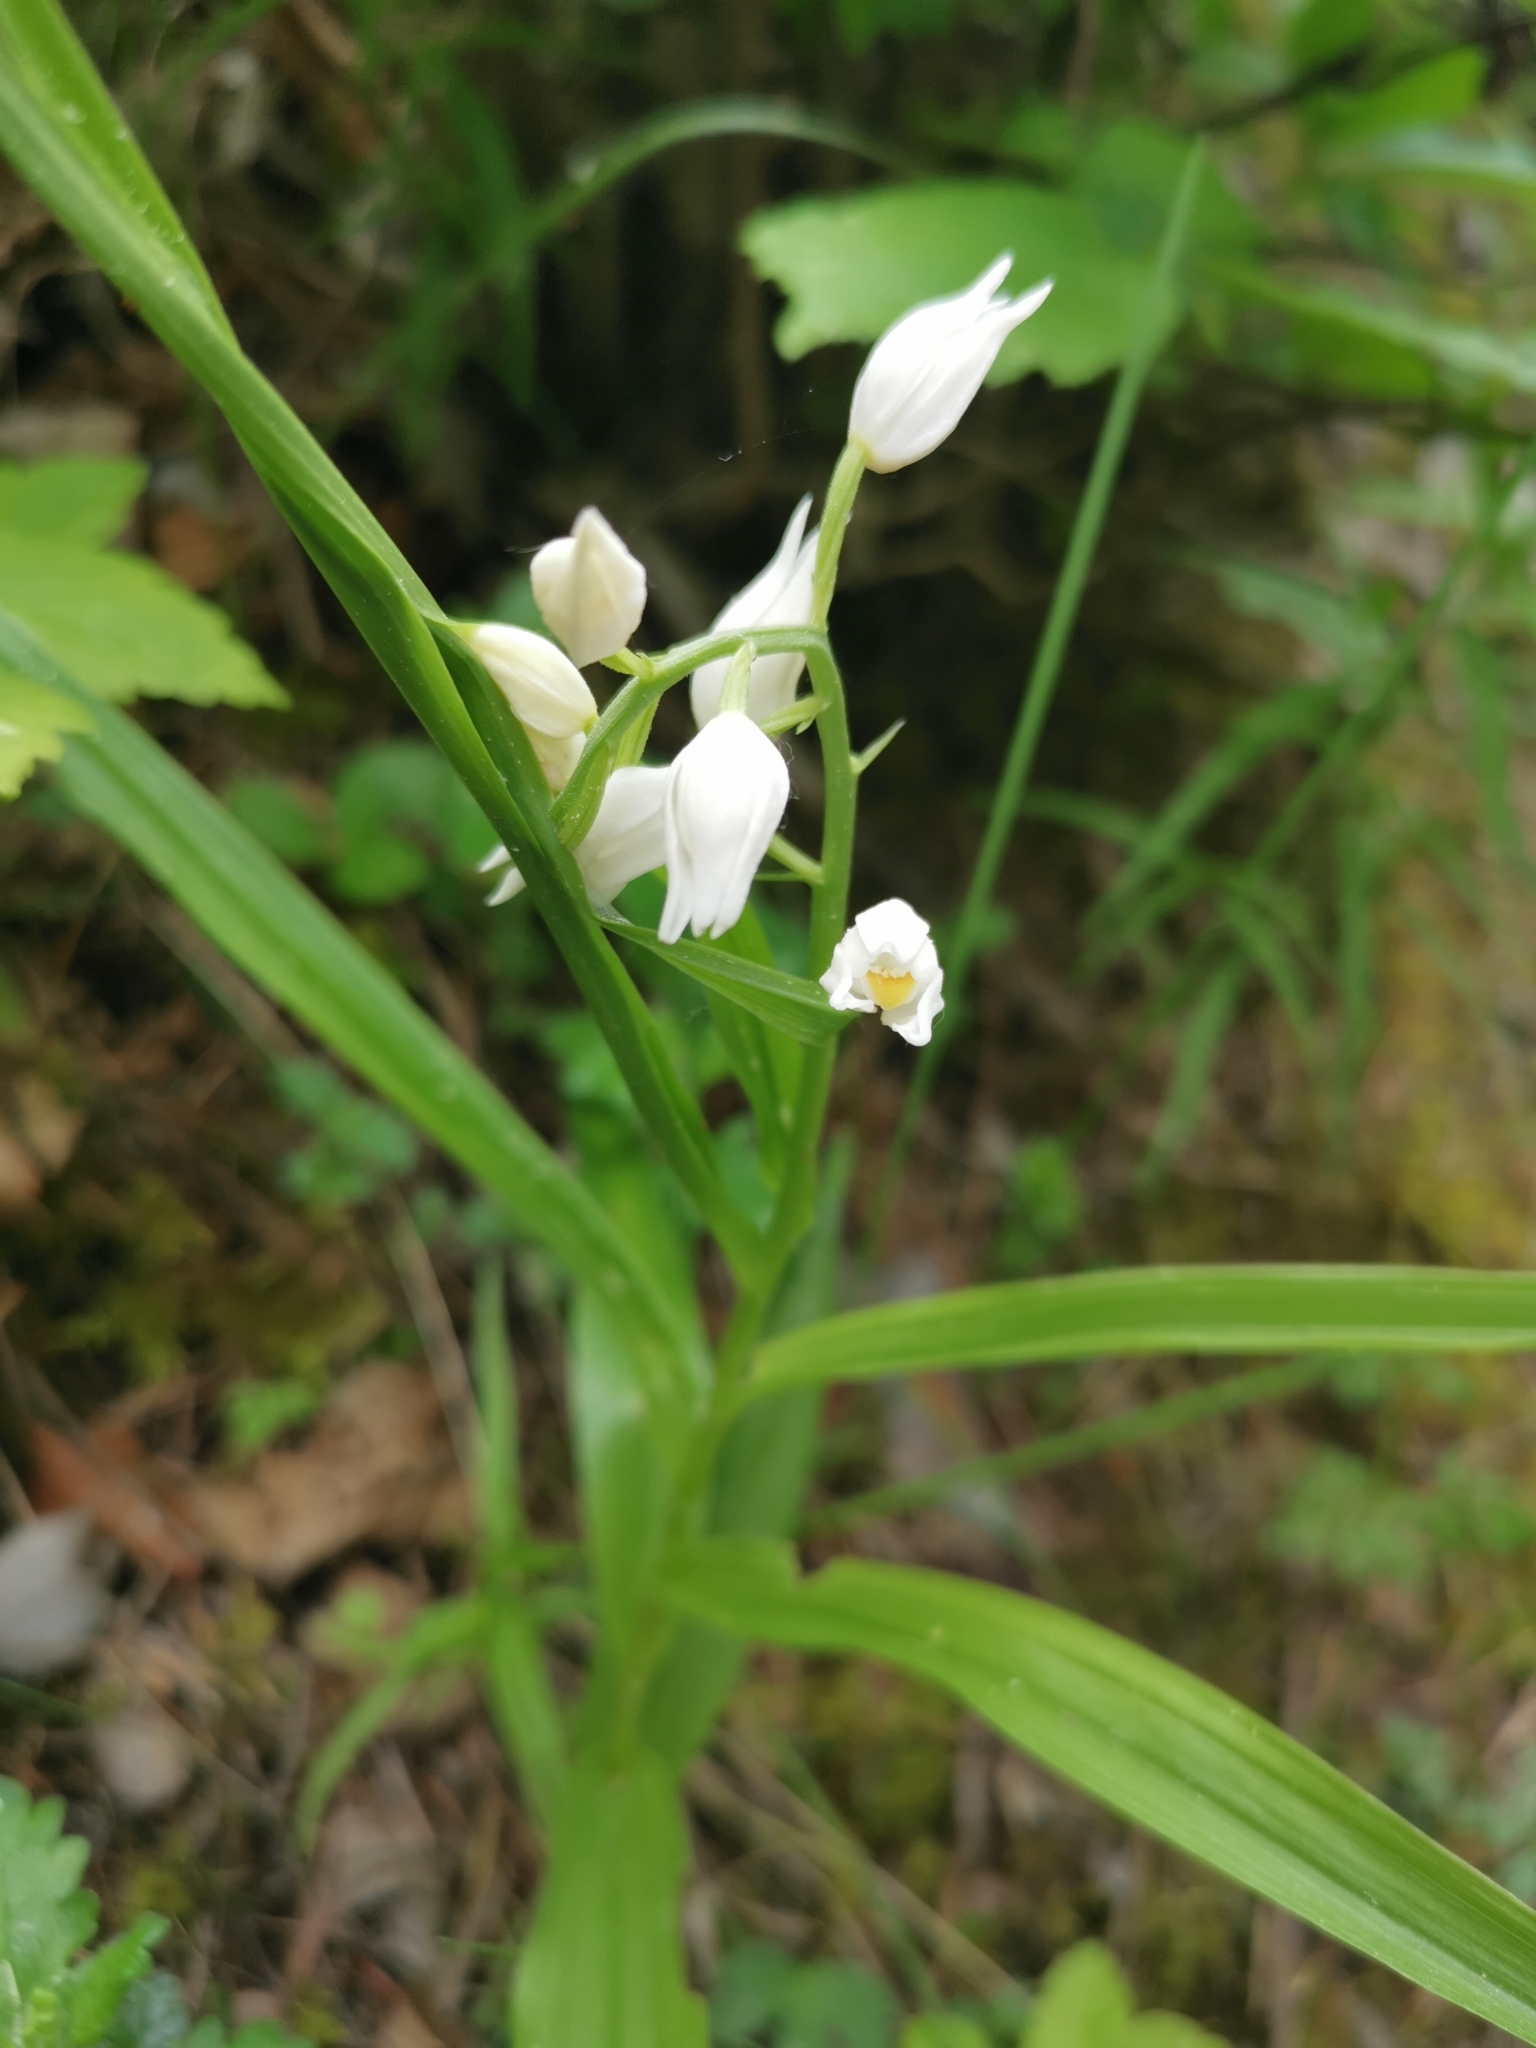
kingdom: Plantae
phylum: Tracheophyta
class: Liliopsida
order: Asparagales
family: Orchidaceae
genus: Cephalanthera
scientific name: Cephalanthera longifolia
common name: Narrow-leaved helleborine
